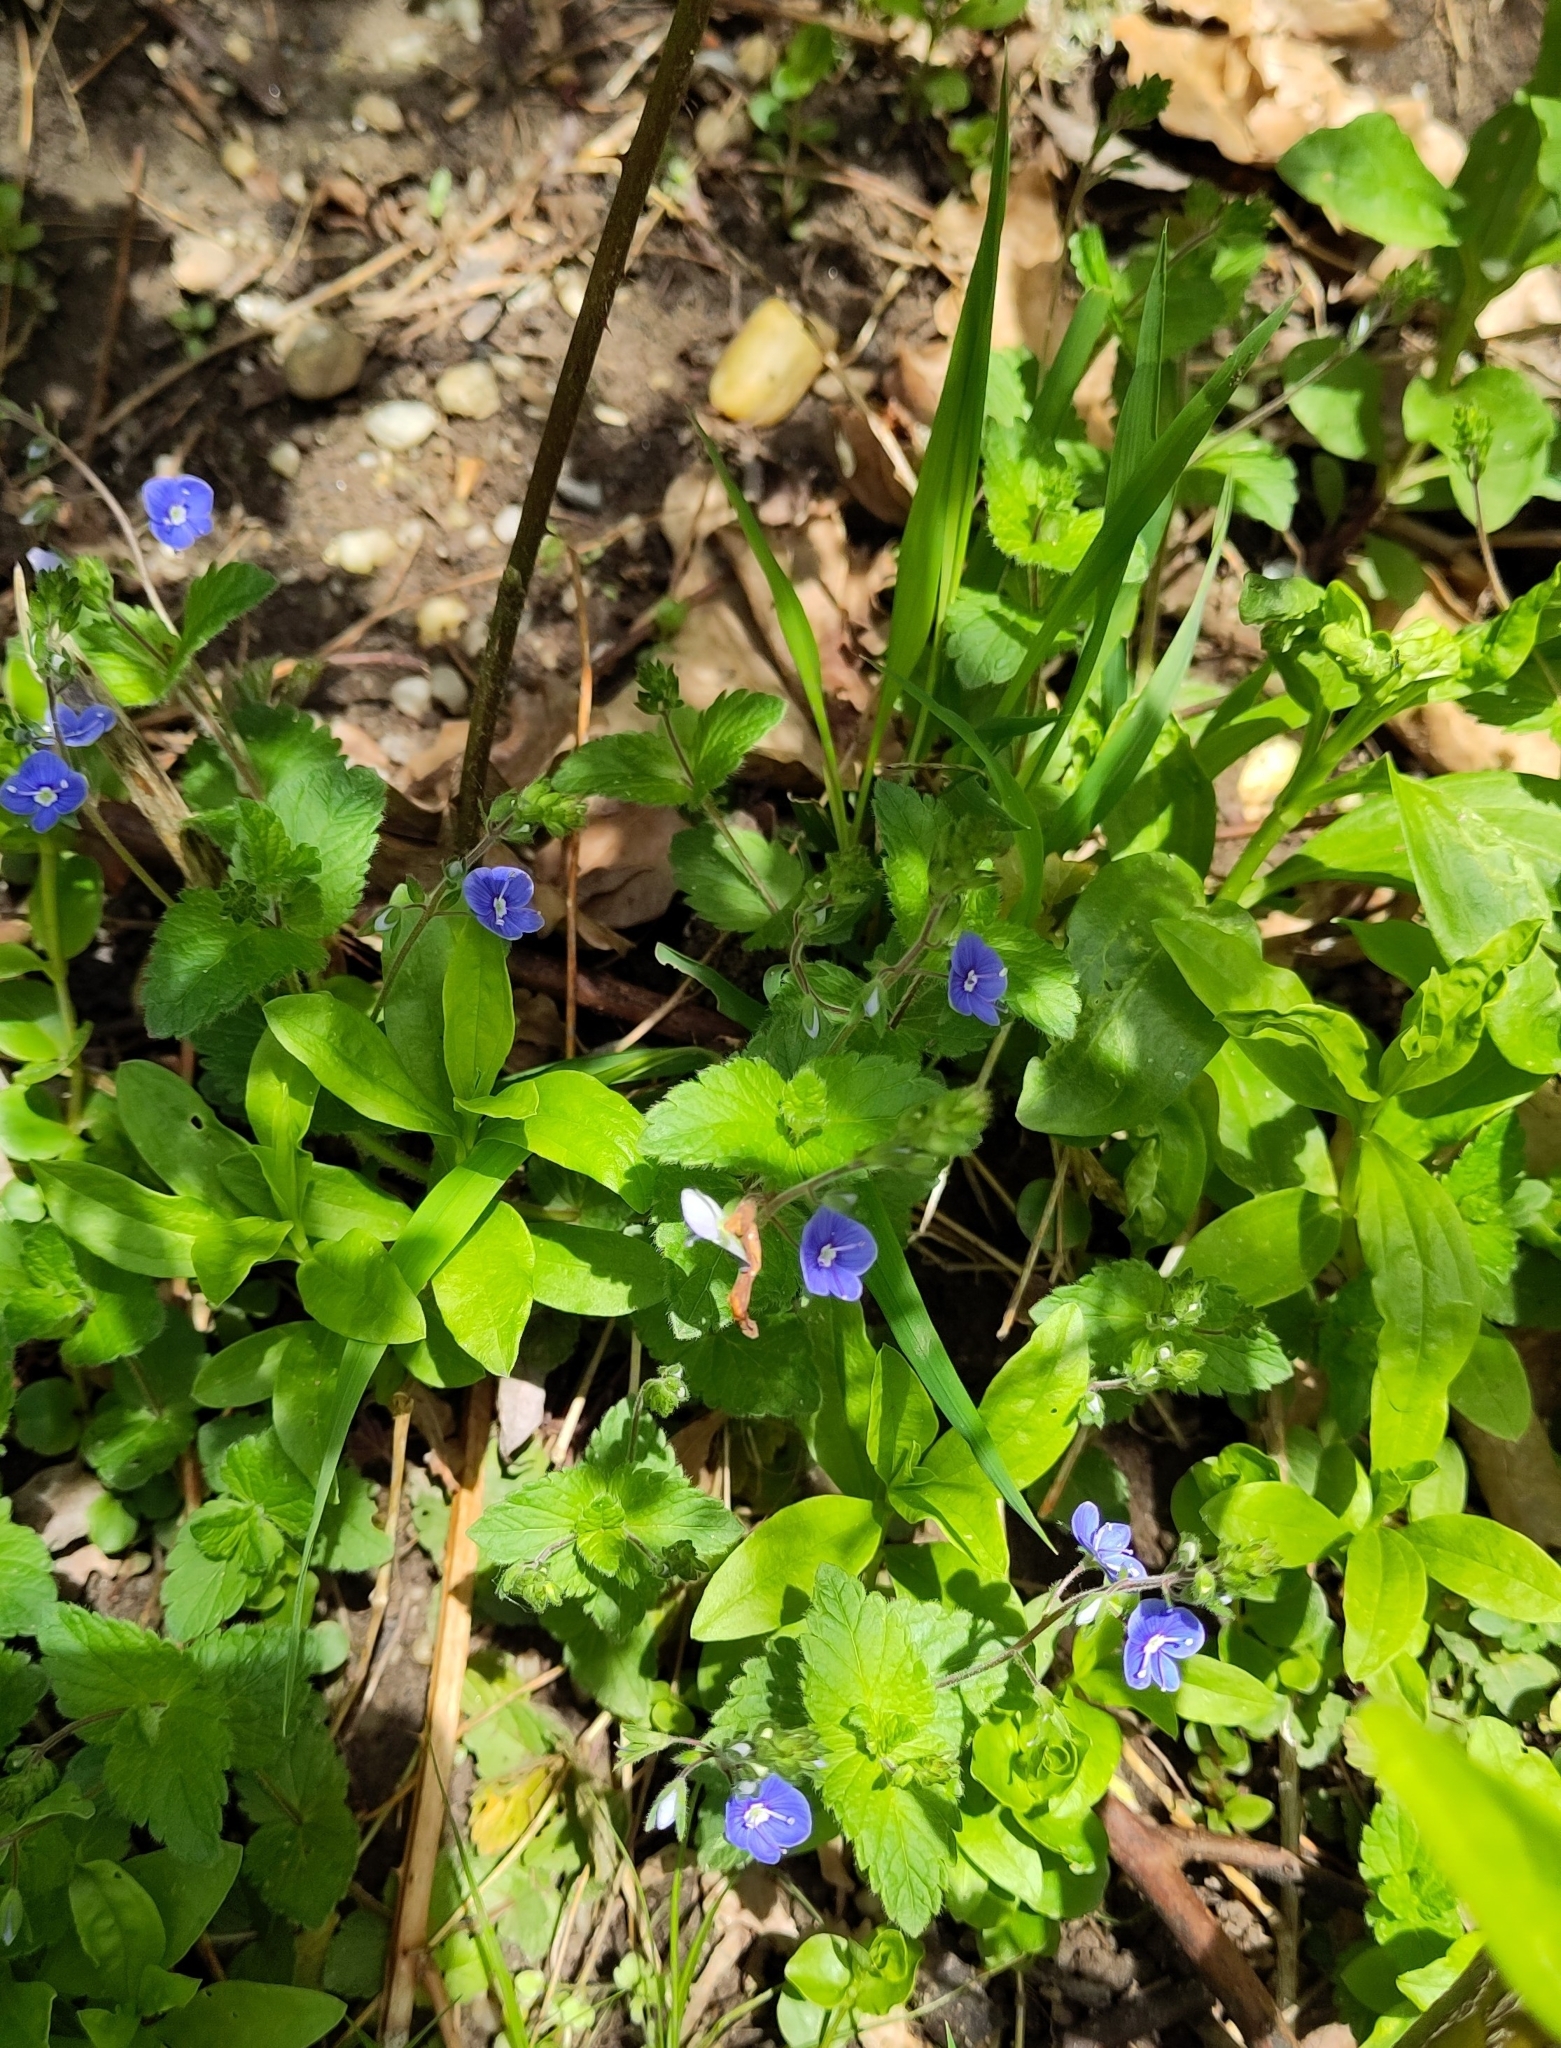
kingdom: Plantae
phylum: Tracheophyta
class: Magnoliopsida
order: Lamiales
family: Plantaginaceae
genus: Veronica
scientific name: Veronica chamaedrys
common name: Germander speedwell
